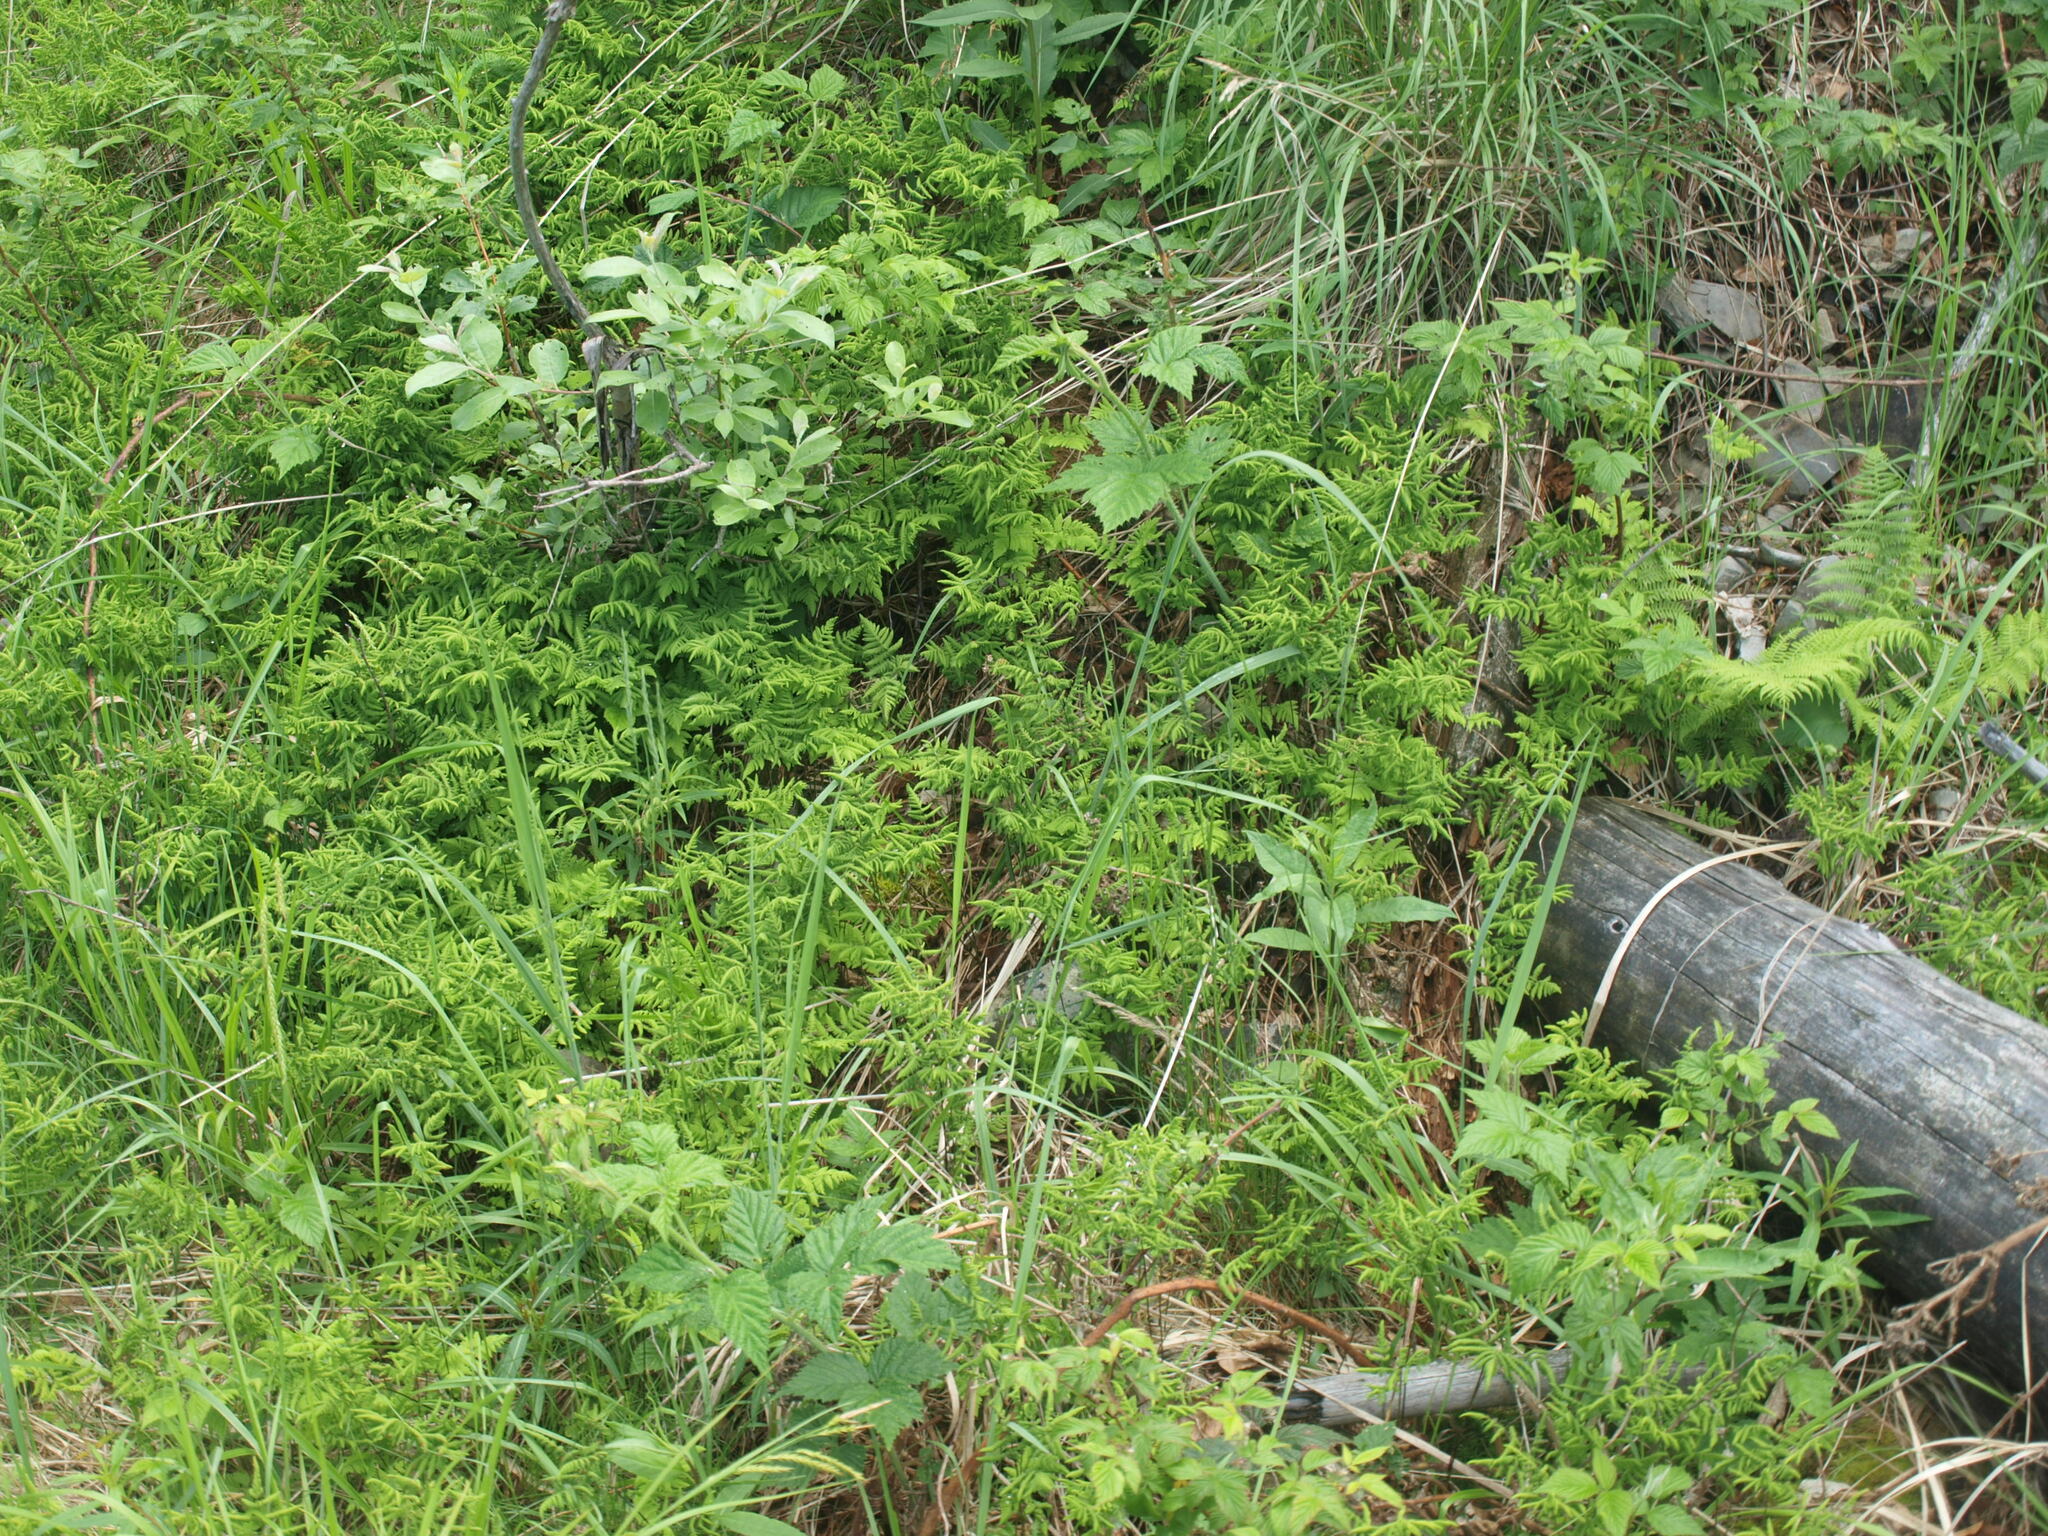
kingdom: Plantae
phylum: Tracheophyta
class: Polypodiopsida
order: Polypodiales
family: Cystopteridaceae
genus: Gymnocarpium
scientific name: Gymnocarpium dryopteris
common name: Oak fern
